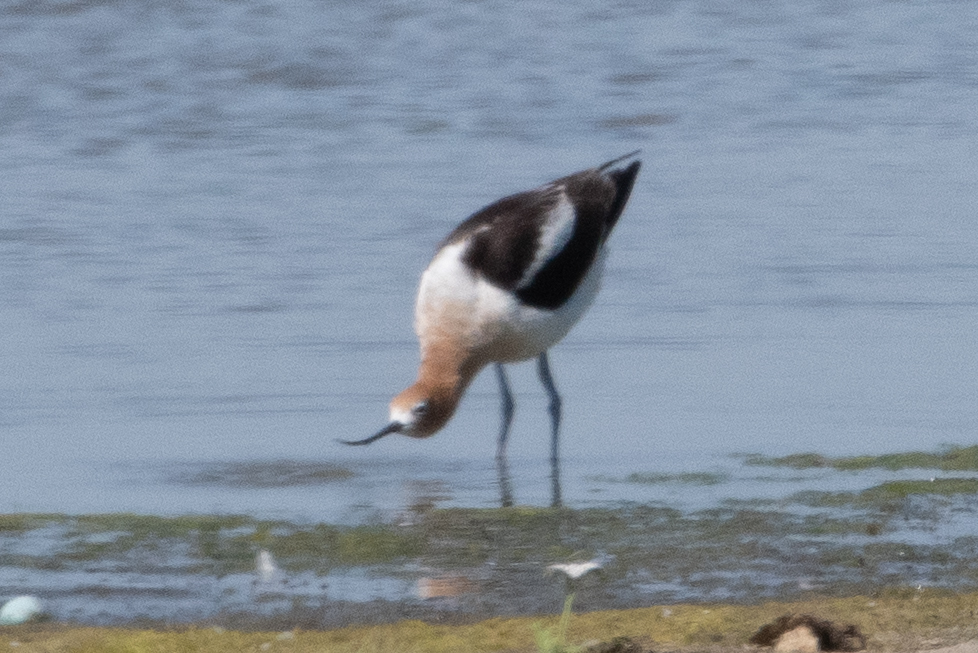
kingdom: Animalia
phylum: Chordata
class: Aves
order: Charadriiformes
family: Recurvirostridae
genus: Recurvirostra
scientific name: Recurvirostra americana
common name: American avocet
